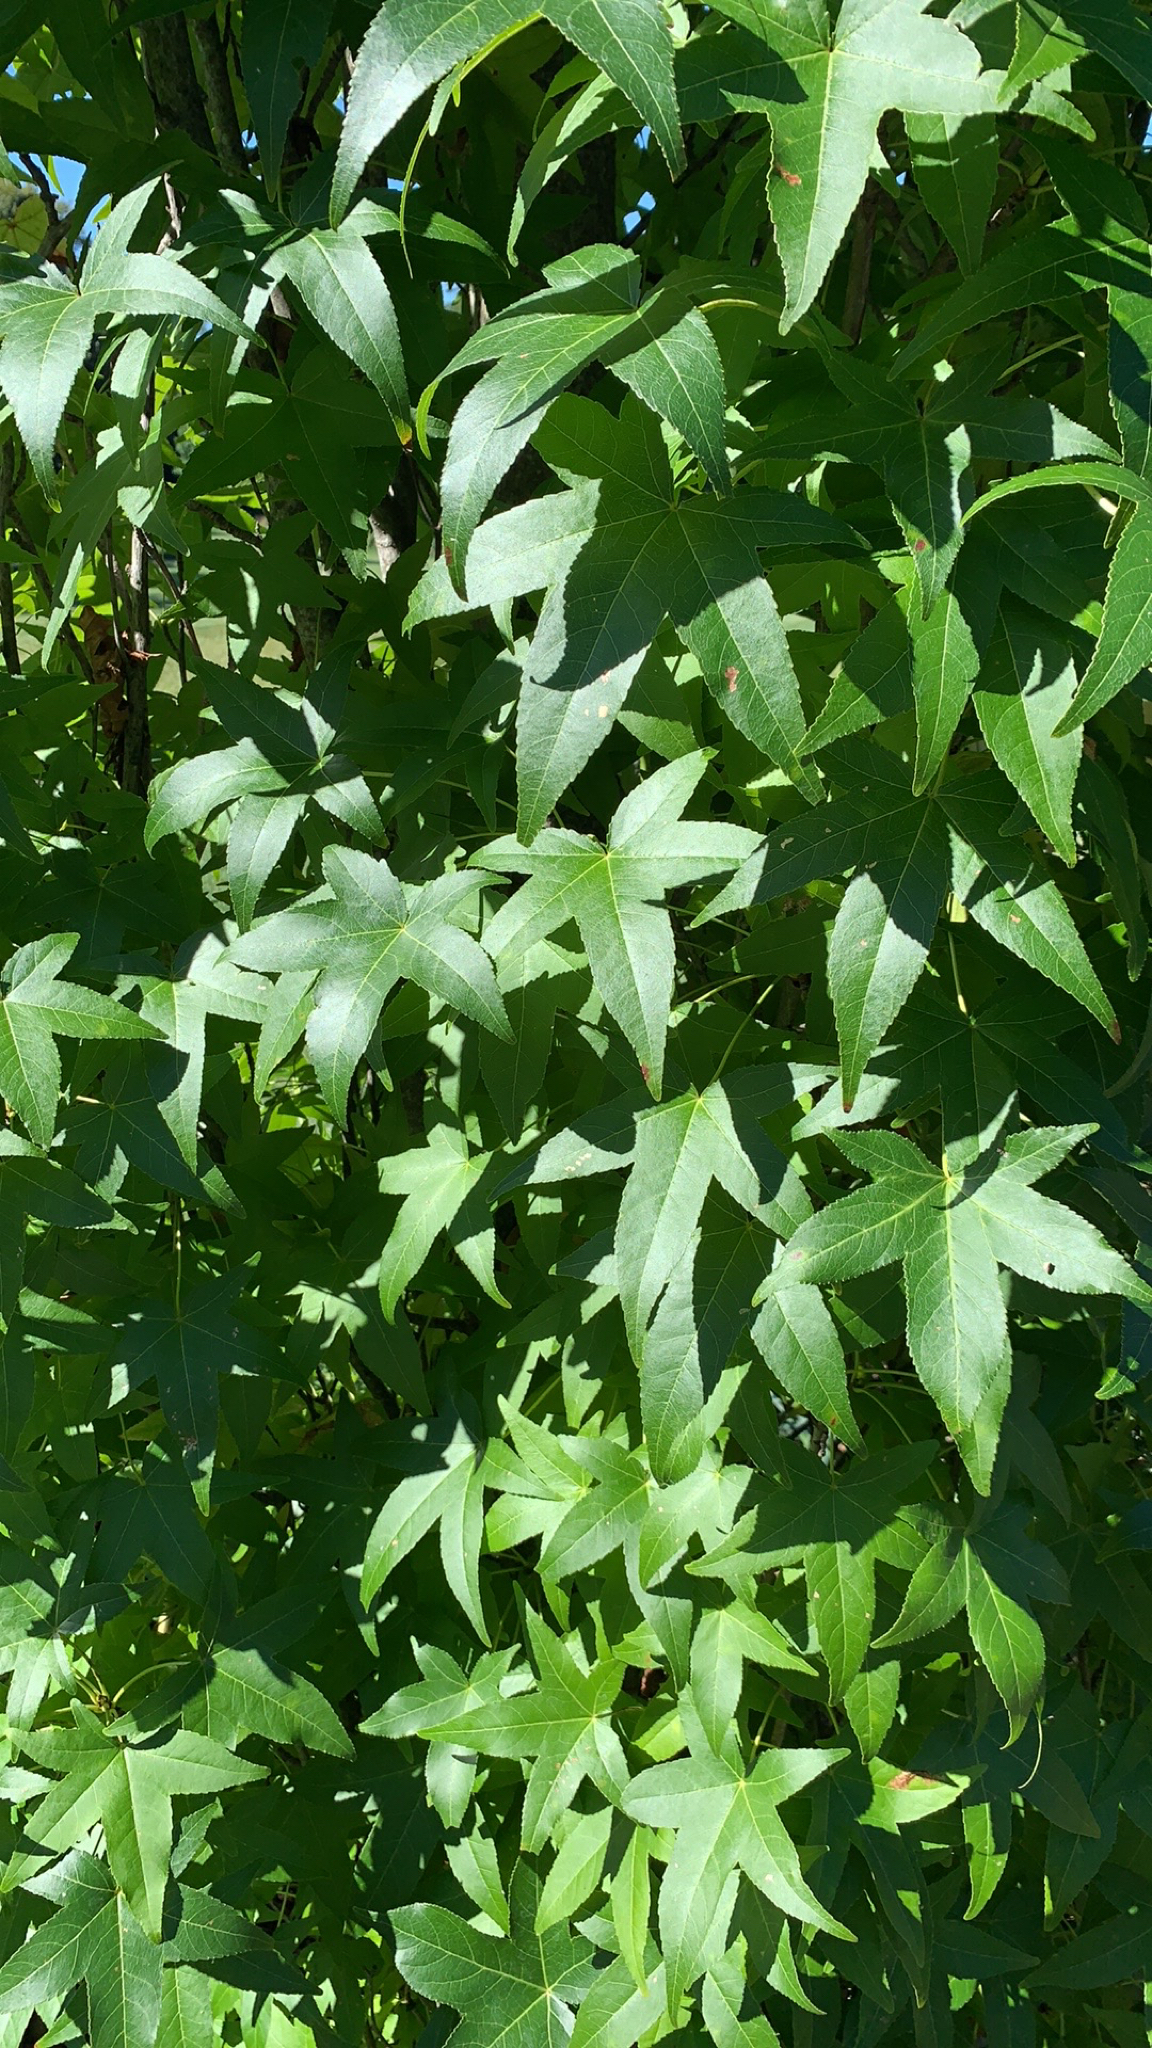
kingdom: Plantae
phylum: Tracheophyta
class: Magnoliopsida
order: Saxifragales
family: Altingiaceae
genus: Liquidambar
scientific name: Liquidambar styraciflua
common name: Sweet gum
